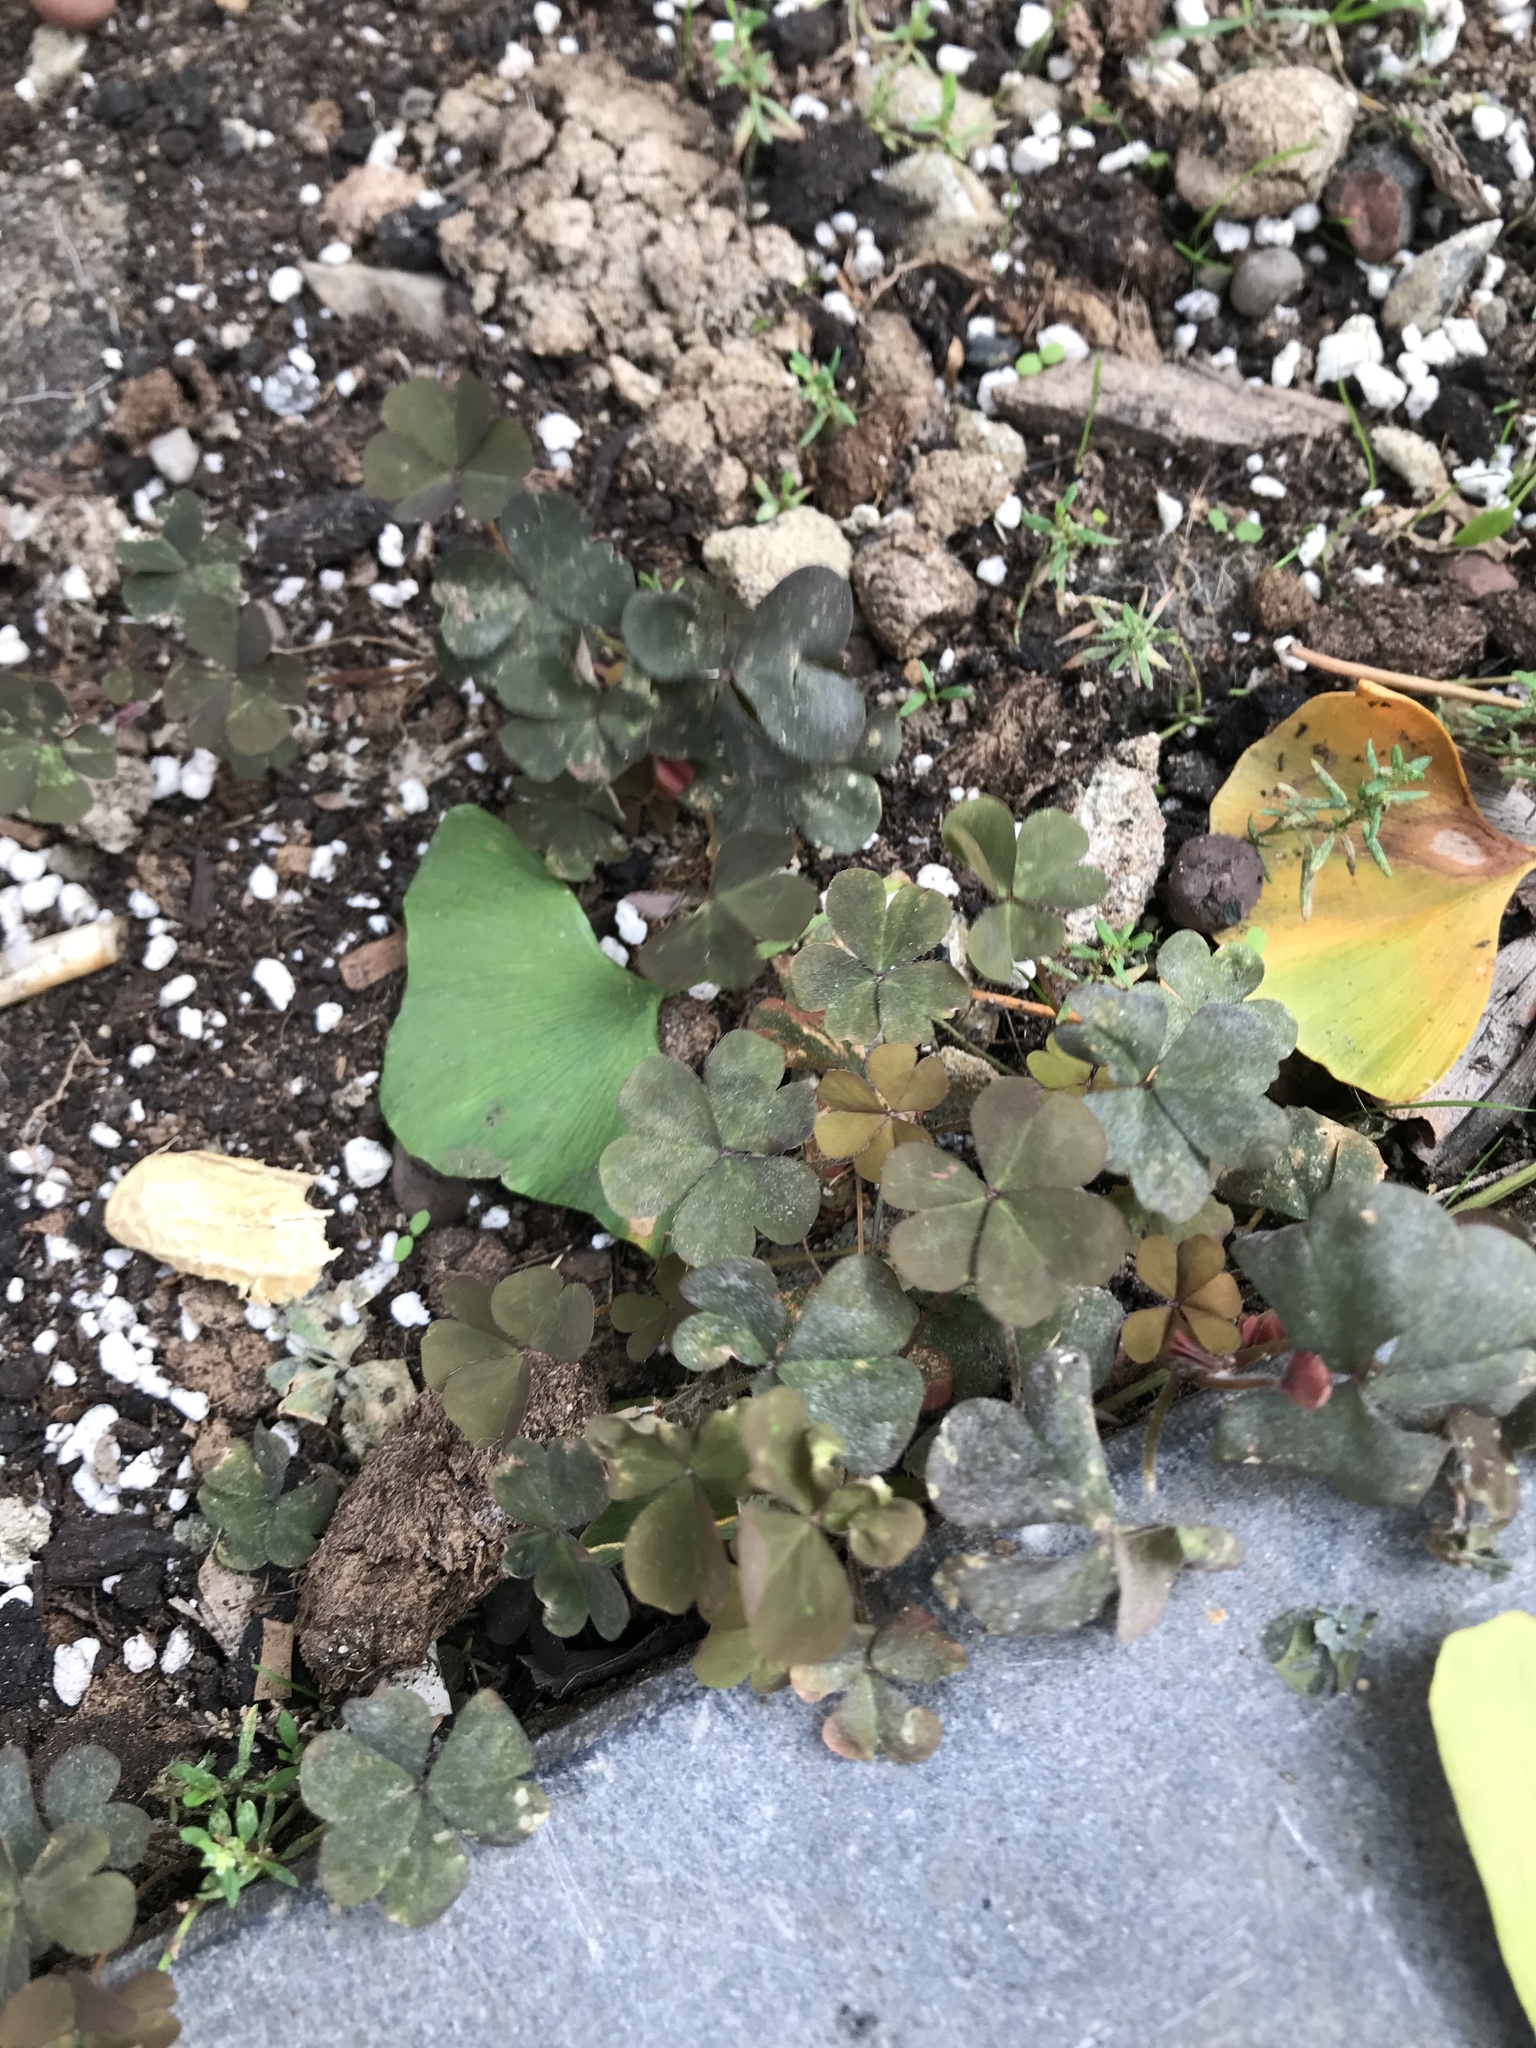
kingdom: Plantae
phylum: Tracheophyta
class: Magnoliopsida
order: Oxalidales
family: Oxalidaceae
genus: Oxalis
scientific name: Oxalis corniculata
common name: Procumbent yellow-sorrel
